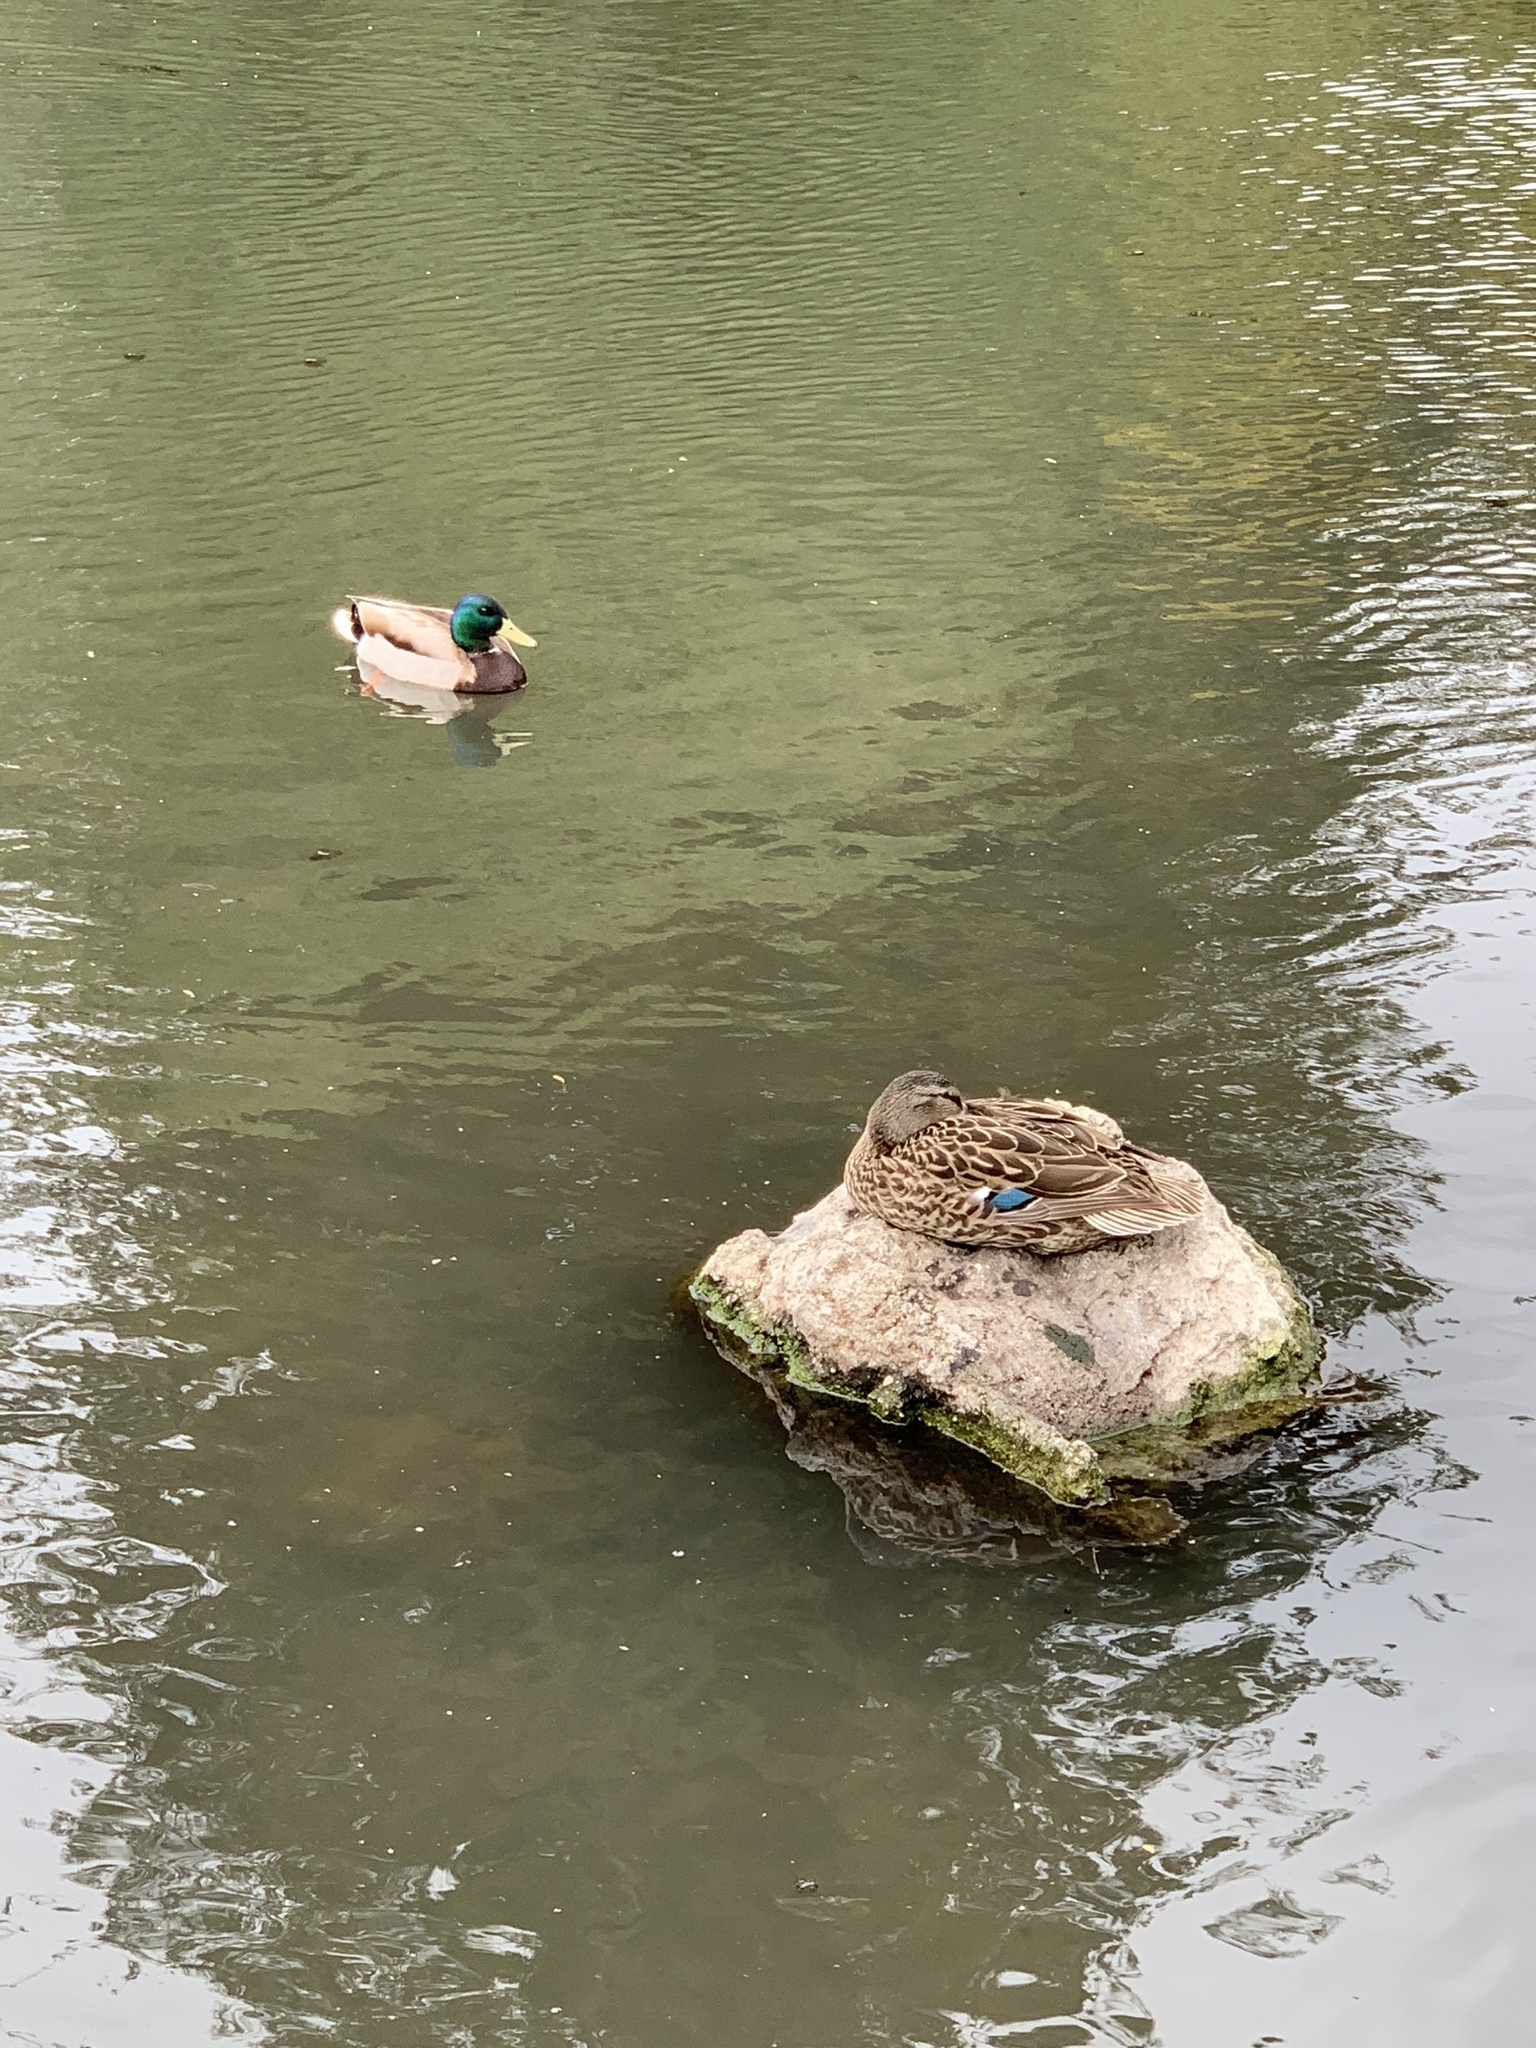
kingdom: Animalia
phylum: Chordata
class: Aves
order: Anseriformes
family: Anatidae
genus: Anas
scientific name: Anas platyrhynchos
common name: Mallard
